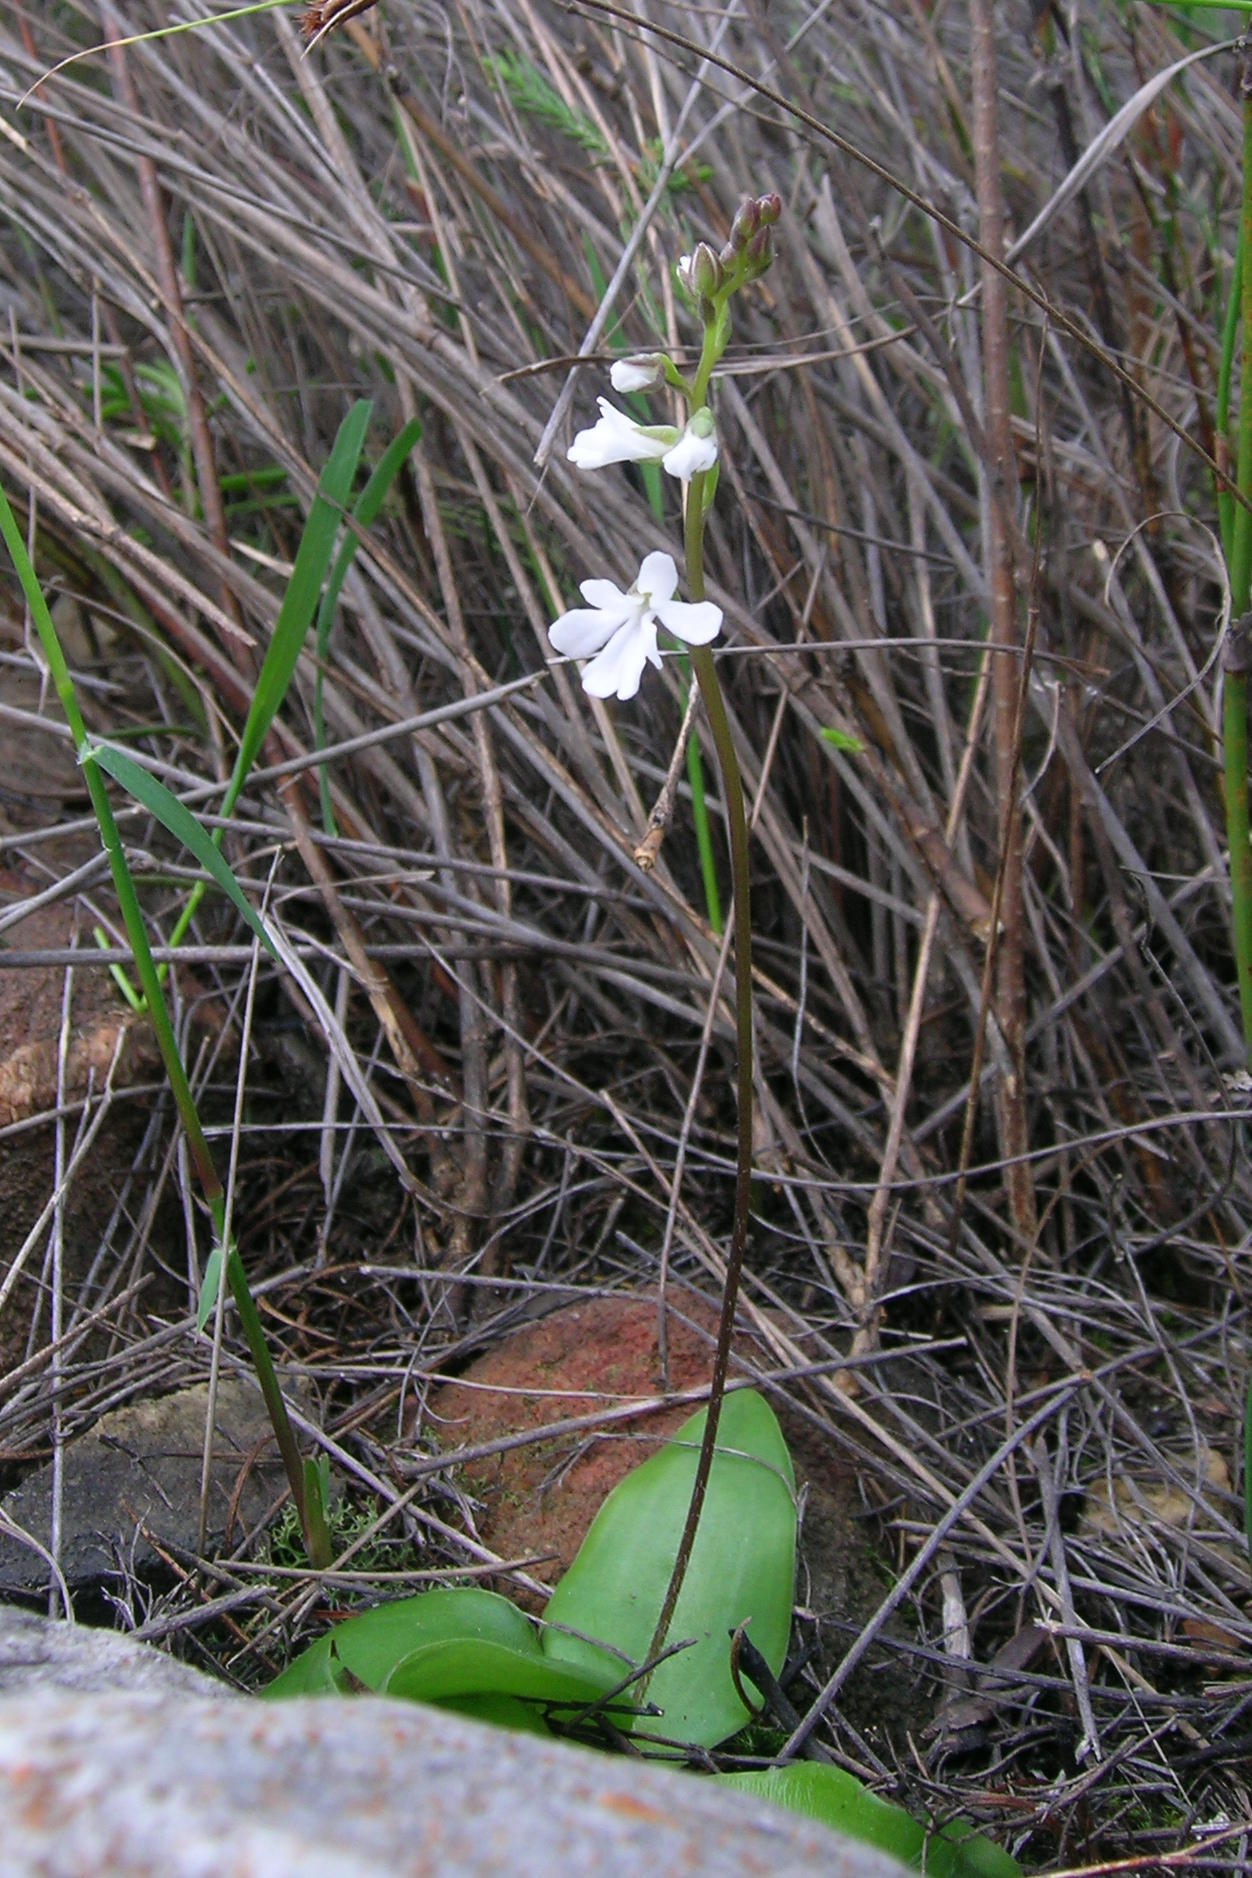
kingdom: Plantae
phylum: Tracheophyta
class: Liliopsida
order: Asparagales
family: Orchidaceae
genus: Holothrix
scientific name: Holothrix parviflora
